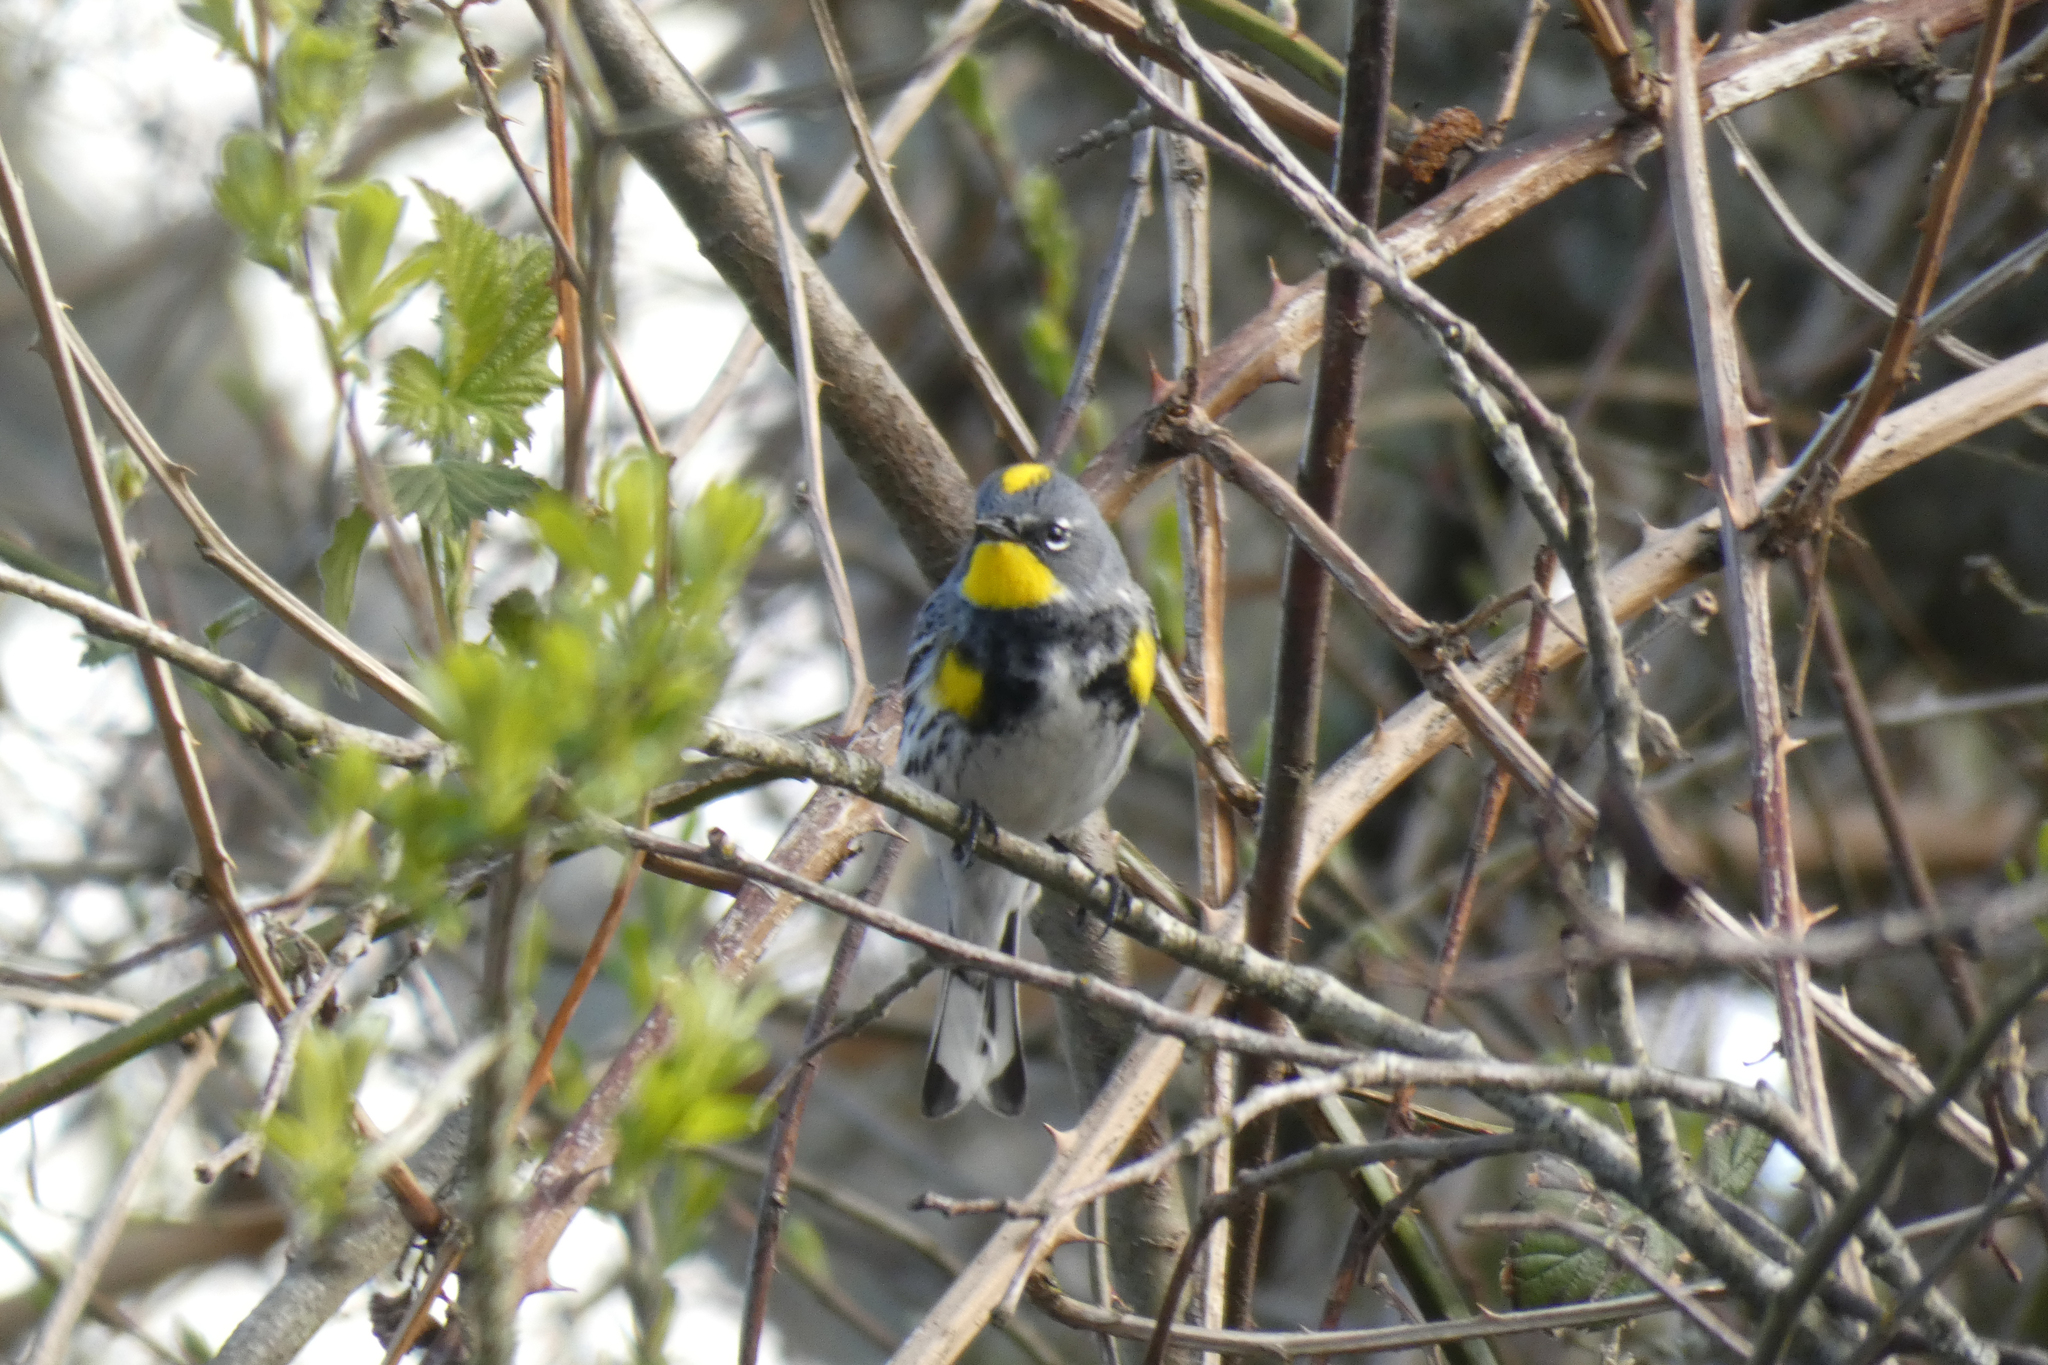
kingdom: Animalia
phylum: Chordata
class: Aves
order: Passeriformes
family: Parulidae
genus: Setophaga
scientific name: Setophaga coronata
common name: Myrtle warbler
